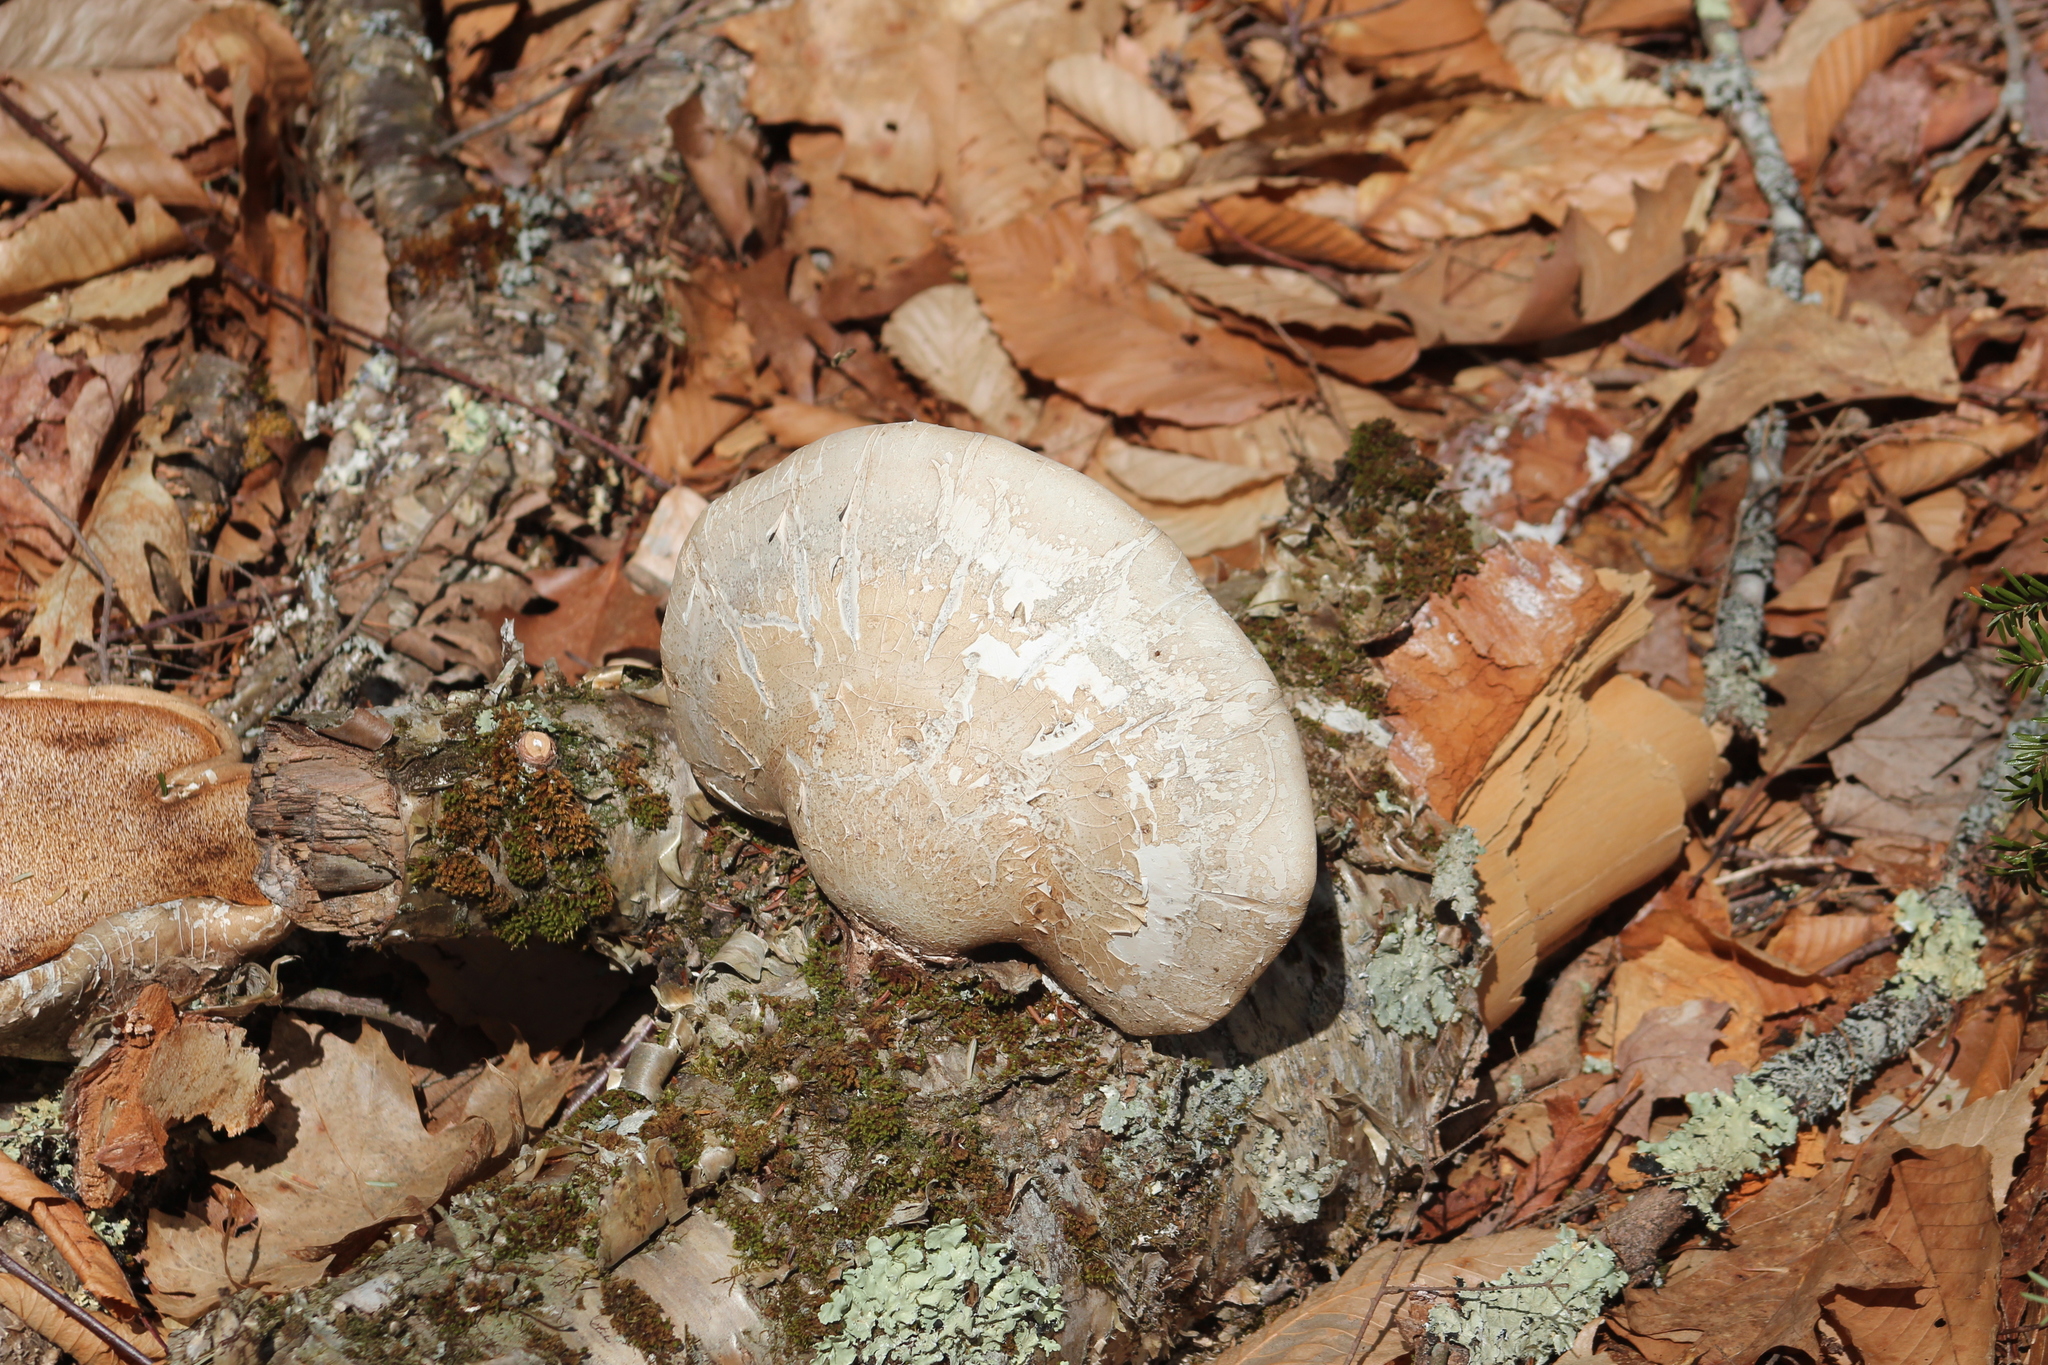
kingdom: Fungi
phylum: Basidiomycota
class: Agaricomycetes
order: Polyporales
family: Fomitopsidaceae
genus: Fomitopsis
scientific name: Fomitopsis betulina
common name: Birch polypore
